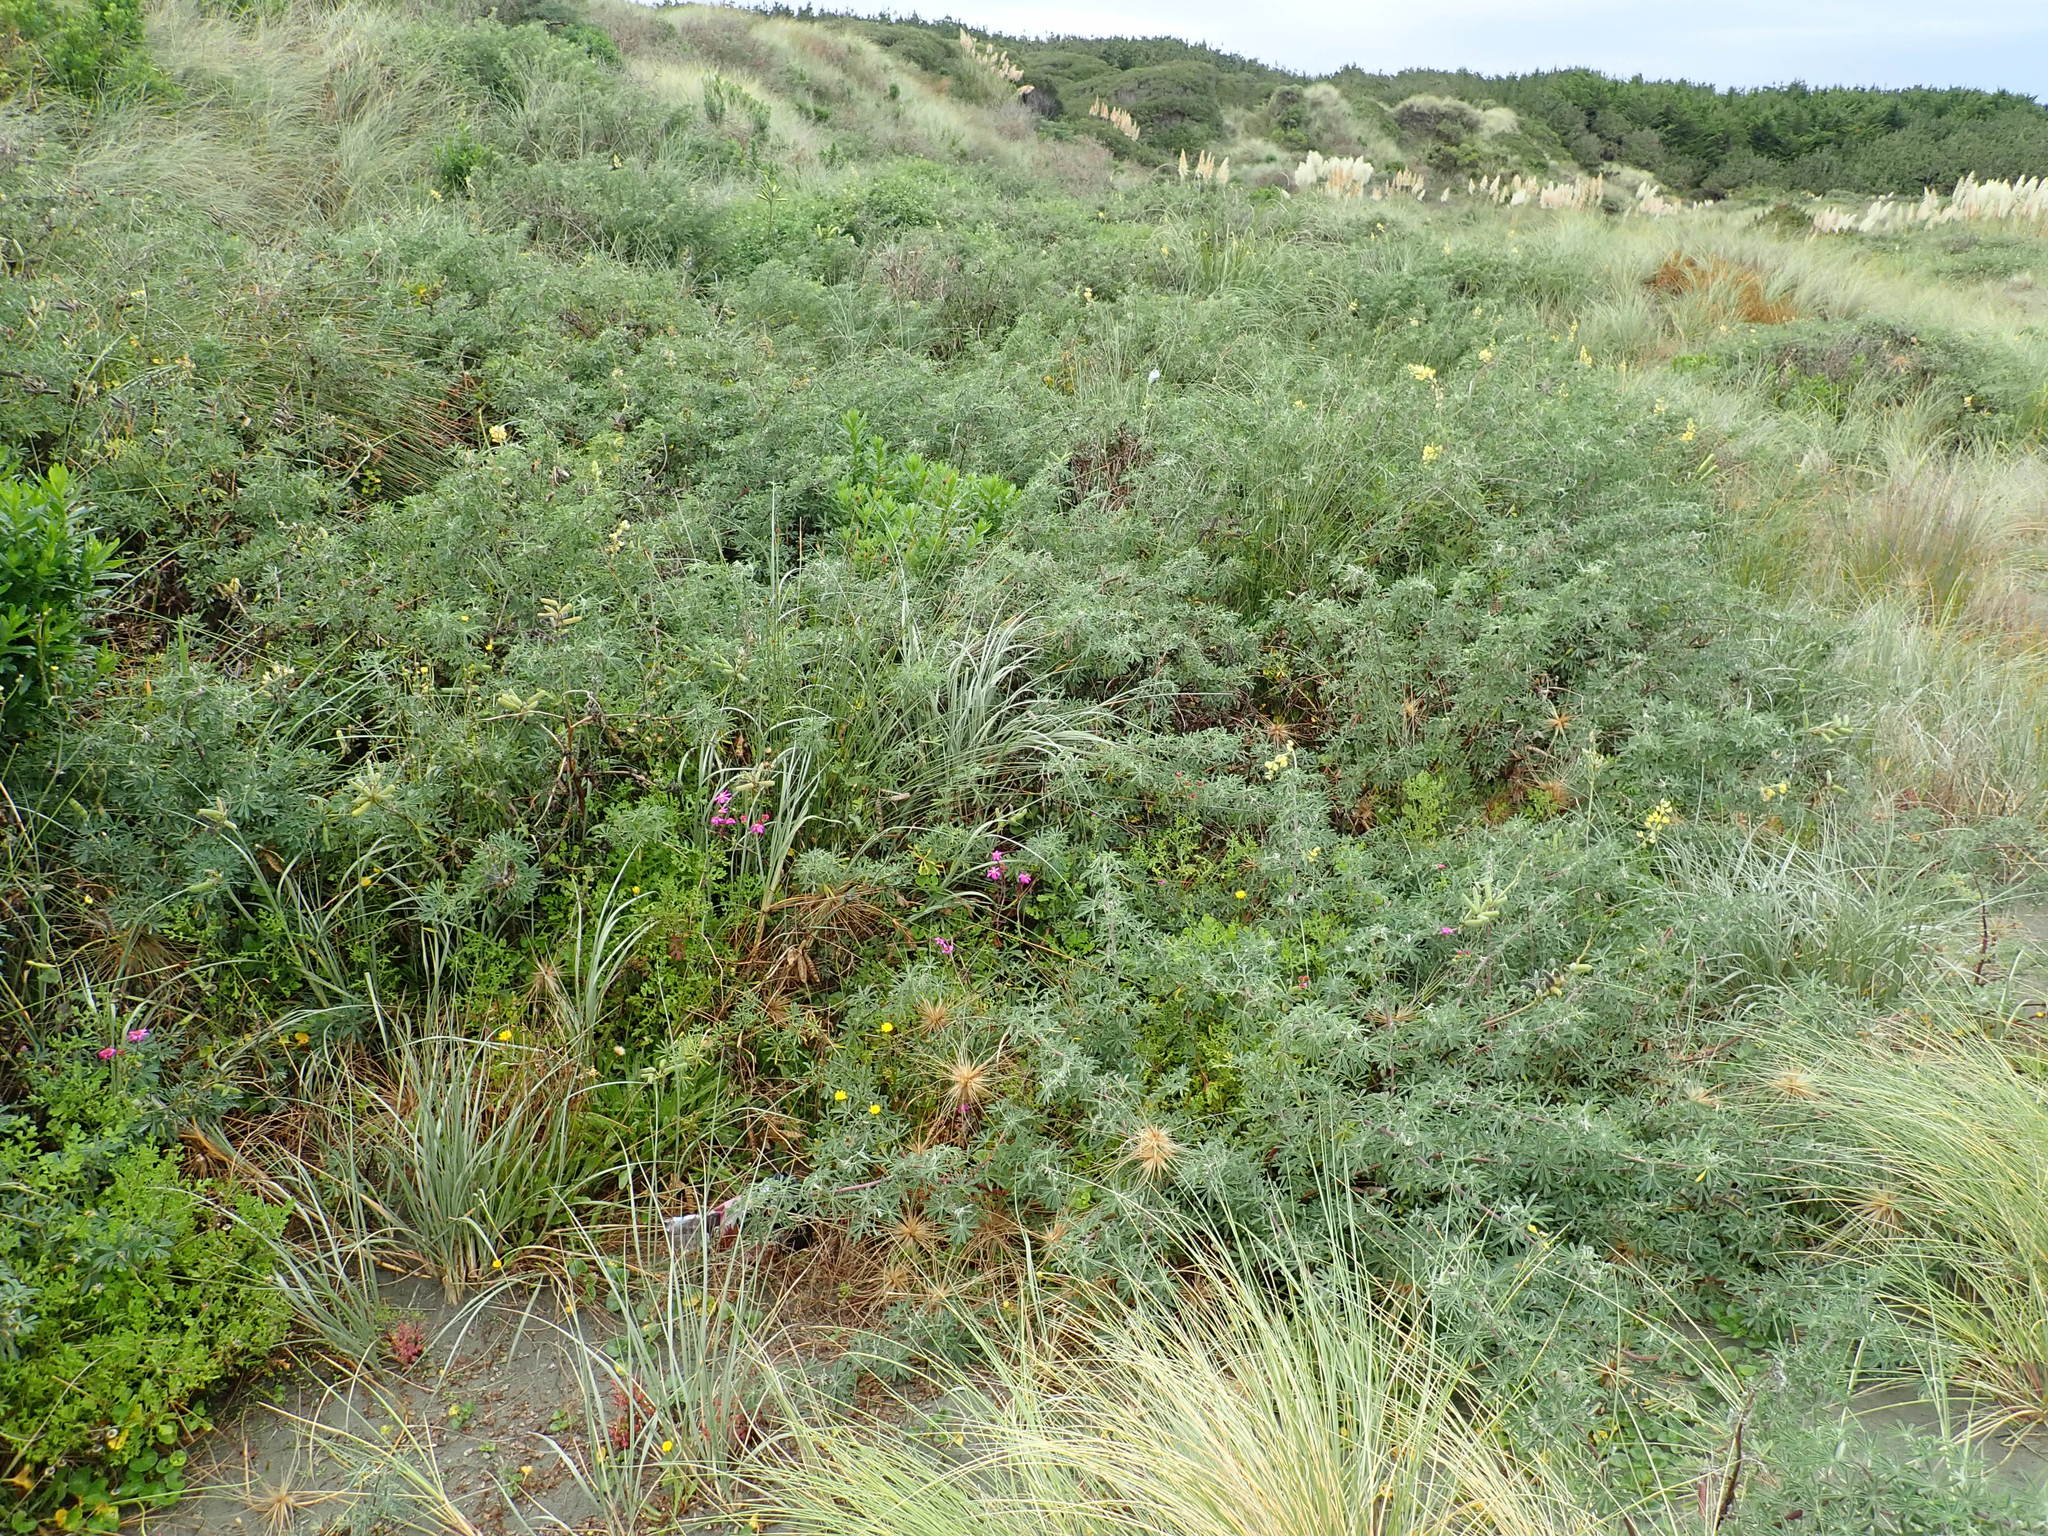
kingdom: Plantae
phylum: Tracheophyta
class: Magnoliopsida
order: Fabales
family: Fabaceae
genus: Lupinus
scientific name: Lupinus arboreus
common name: Yellow bush lupine
